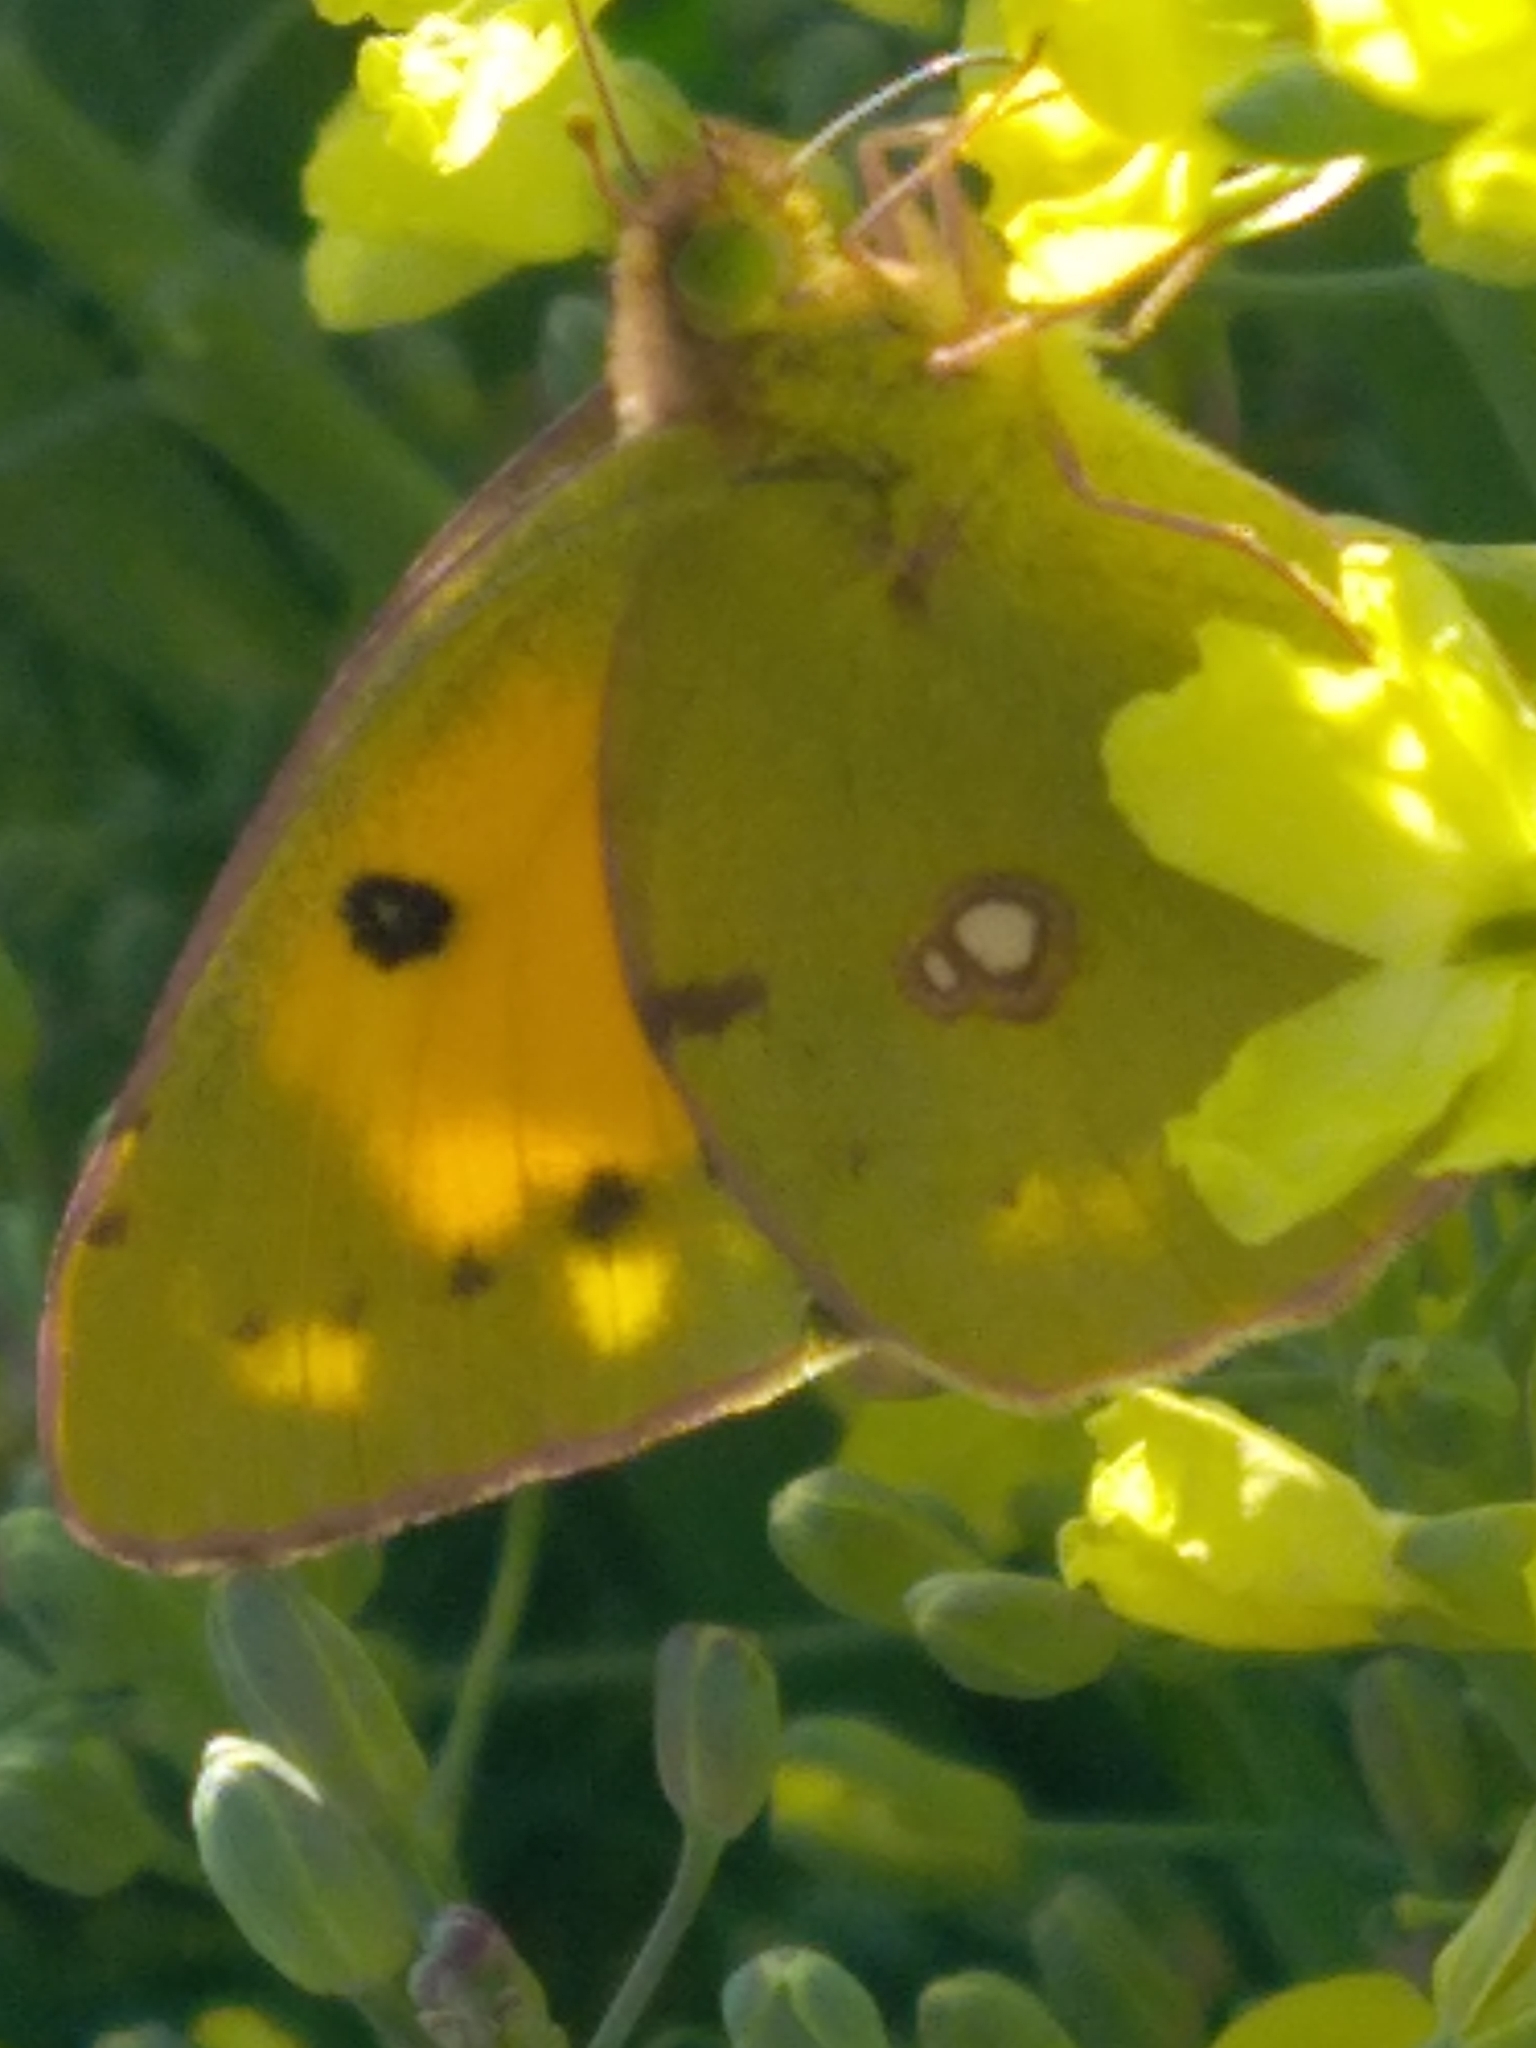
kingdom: Animalia
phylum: Arthropoda
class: Insecta
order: Lepidoptera
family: Pieridae
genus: Colias
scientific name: Colias croceus
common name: Clouded yellow
